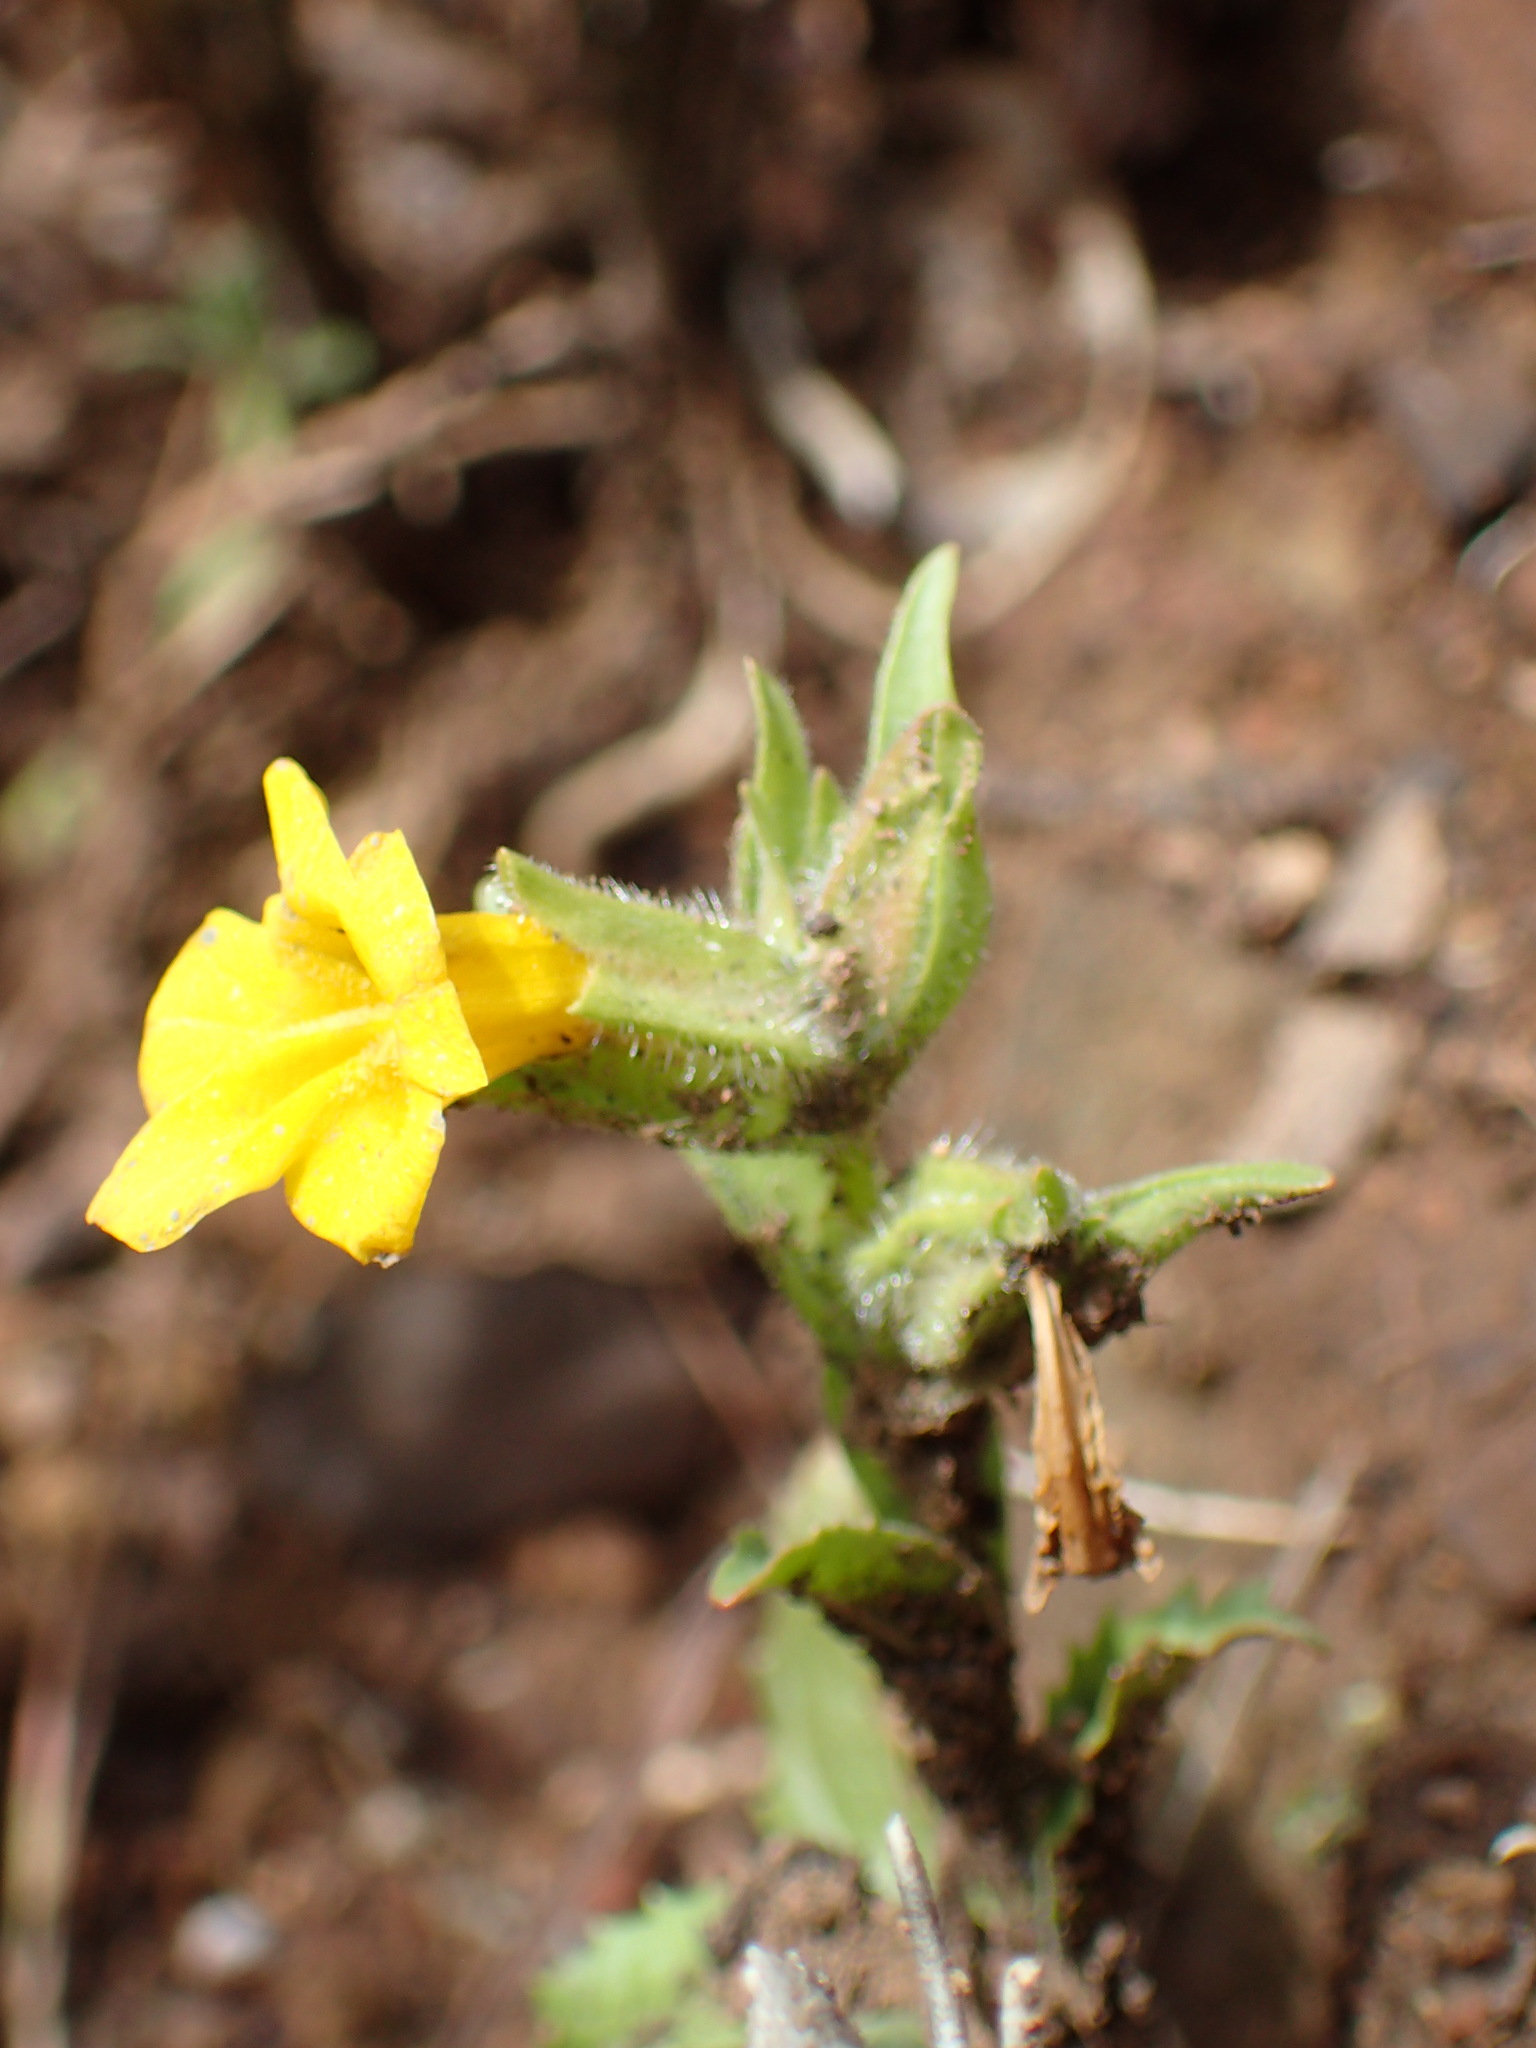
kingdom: Plantae
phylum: Tracheophyta
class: Magnoliopsida
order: Lamiales
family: Phrymaceae
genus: Diplacus
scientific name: Diplacus brevipes
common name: Wide-throat yellow monkey-flower
